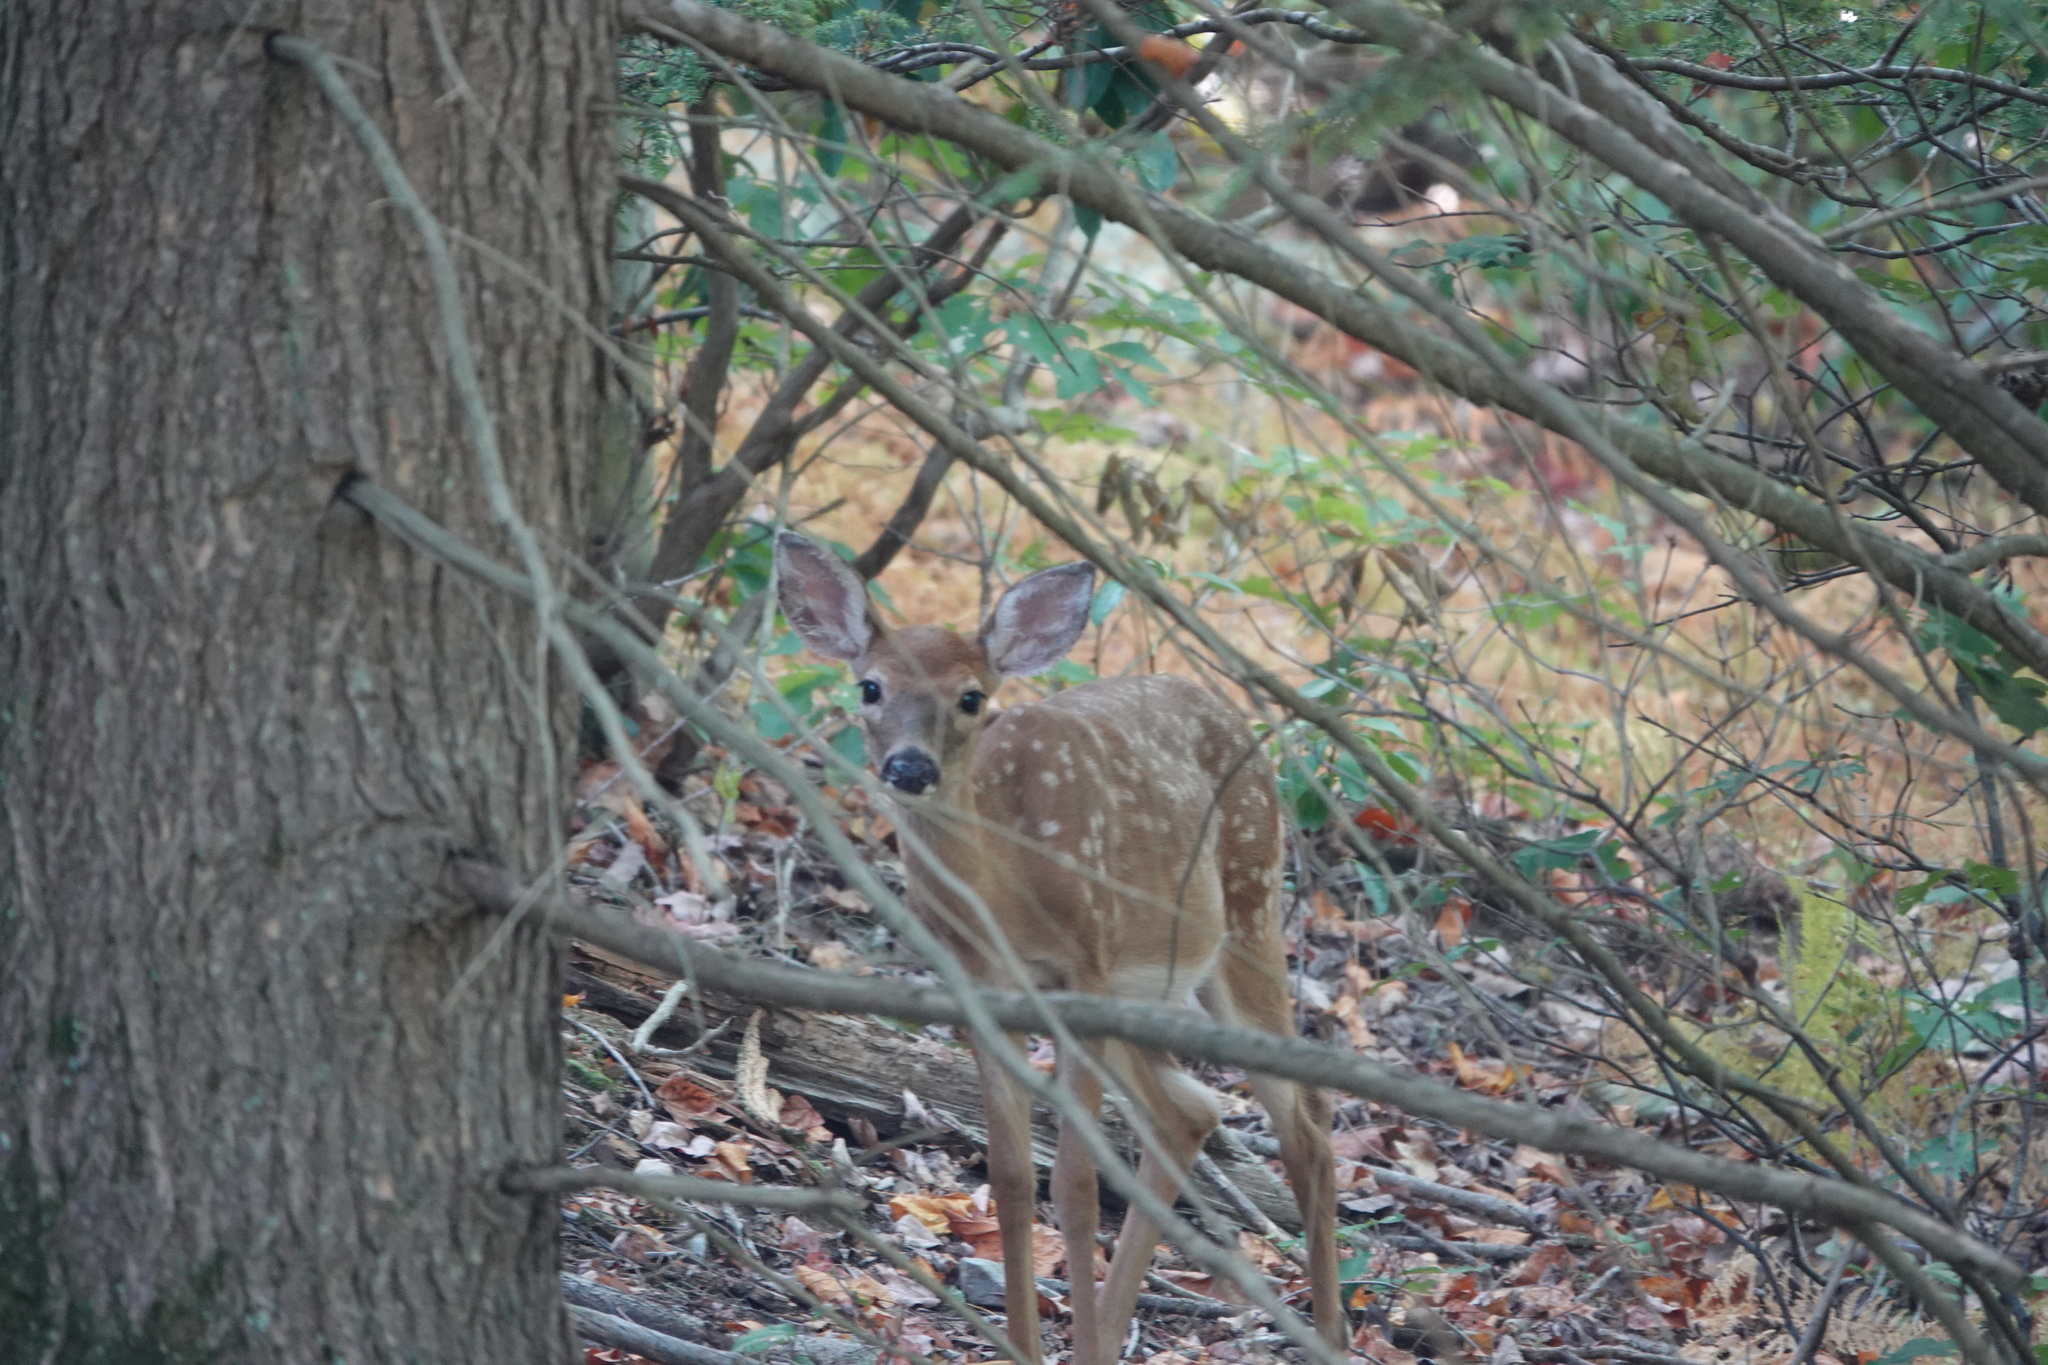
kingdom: Animalia
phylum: Chordata
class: Mammalia
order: Artiodactyla
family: Cervidae
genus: Odocoileus
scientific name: Odocoileus virginianus
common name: White-tailed deer
